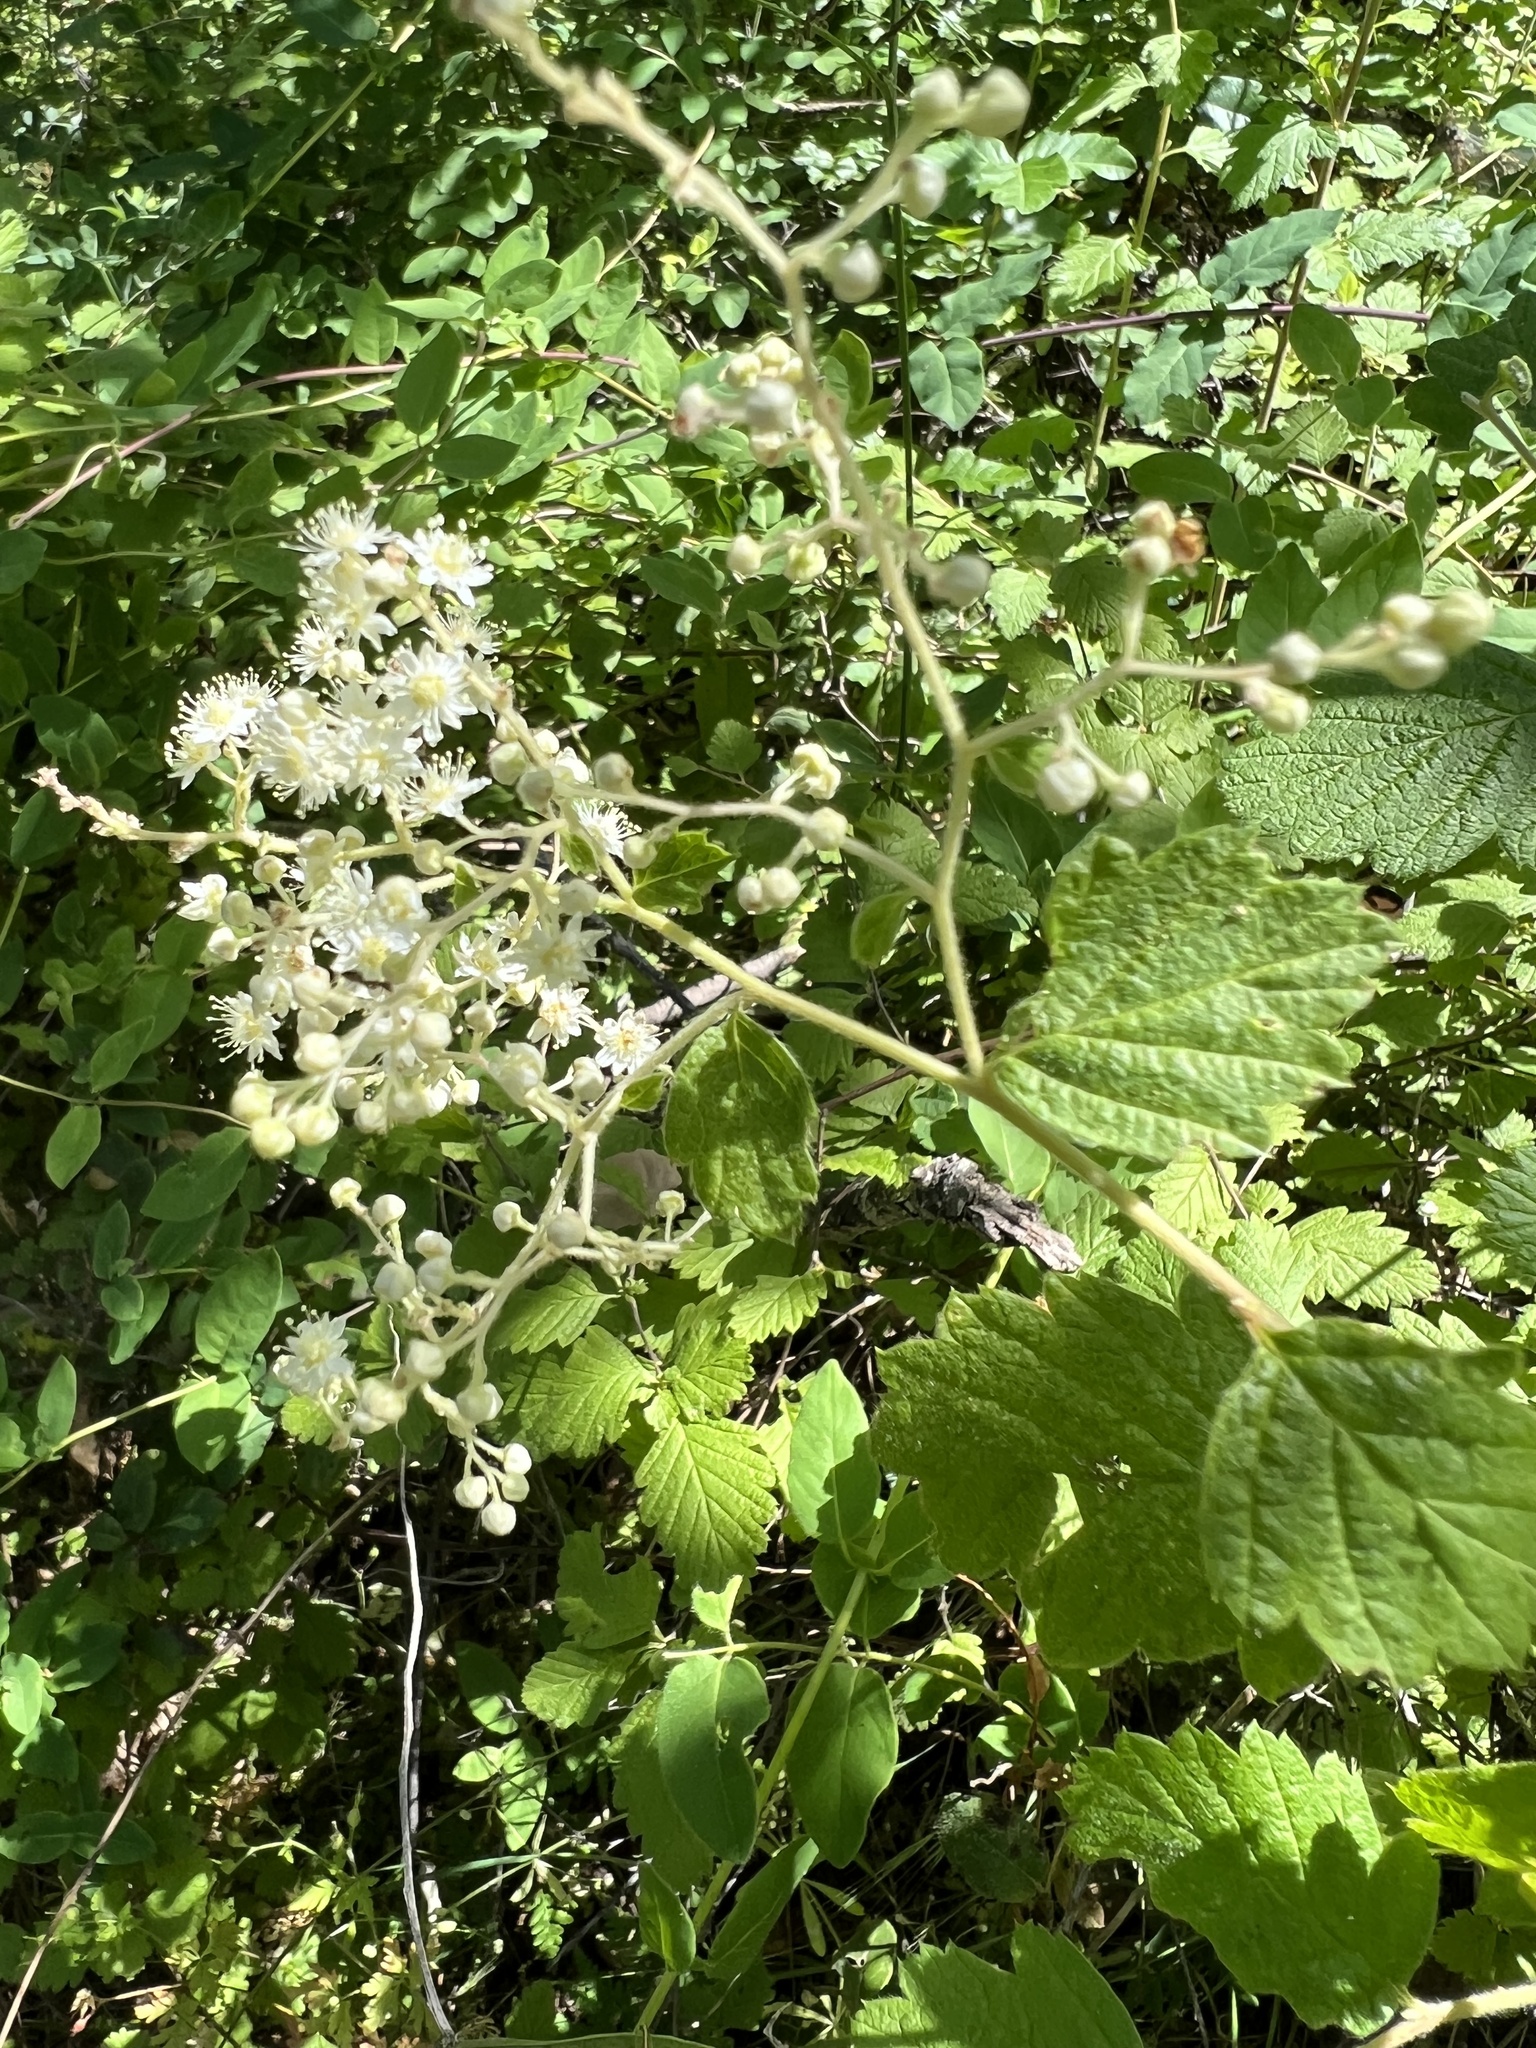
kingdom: Plantae
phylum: Tracheophyta
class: Magnoliopsida
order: Rosales
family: Rosaceae
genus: Holodiscus
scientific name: Holodiscus discolor
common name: Oceanspray
